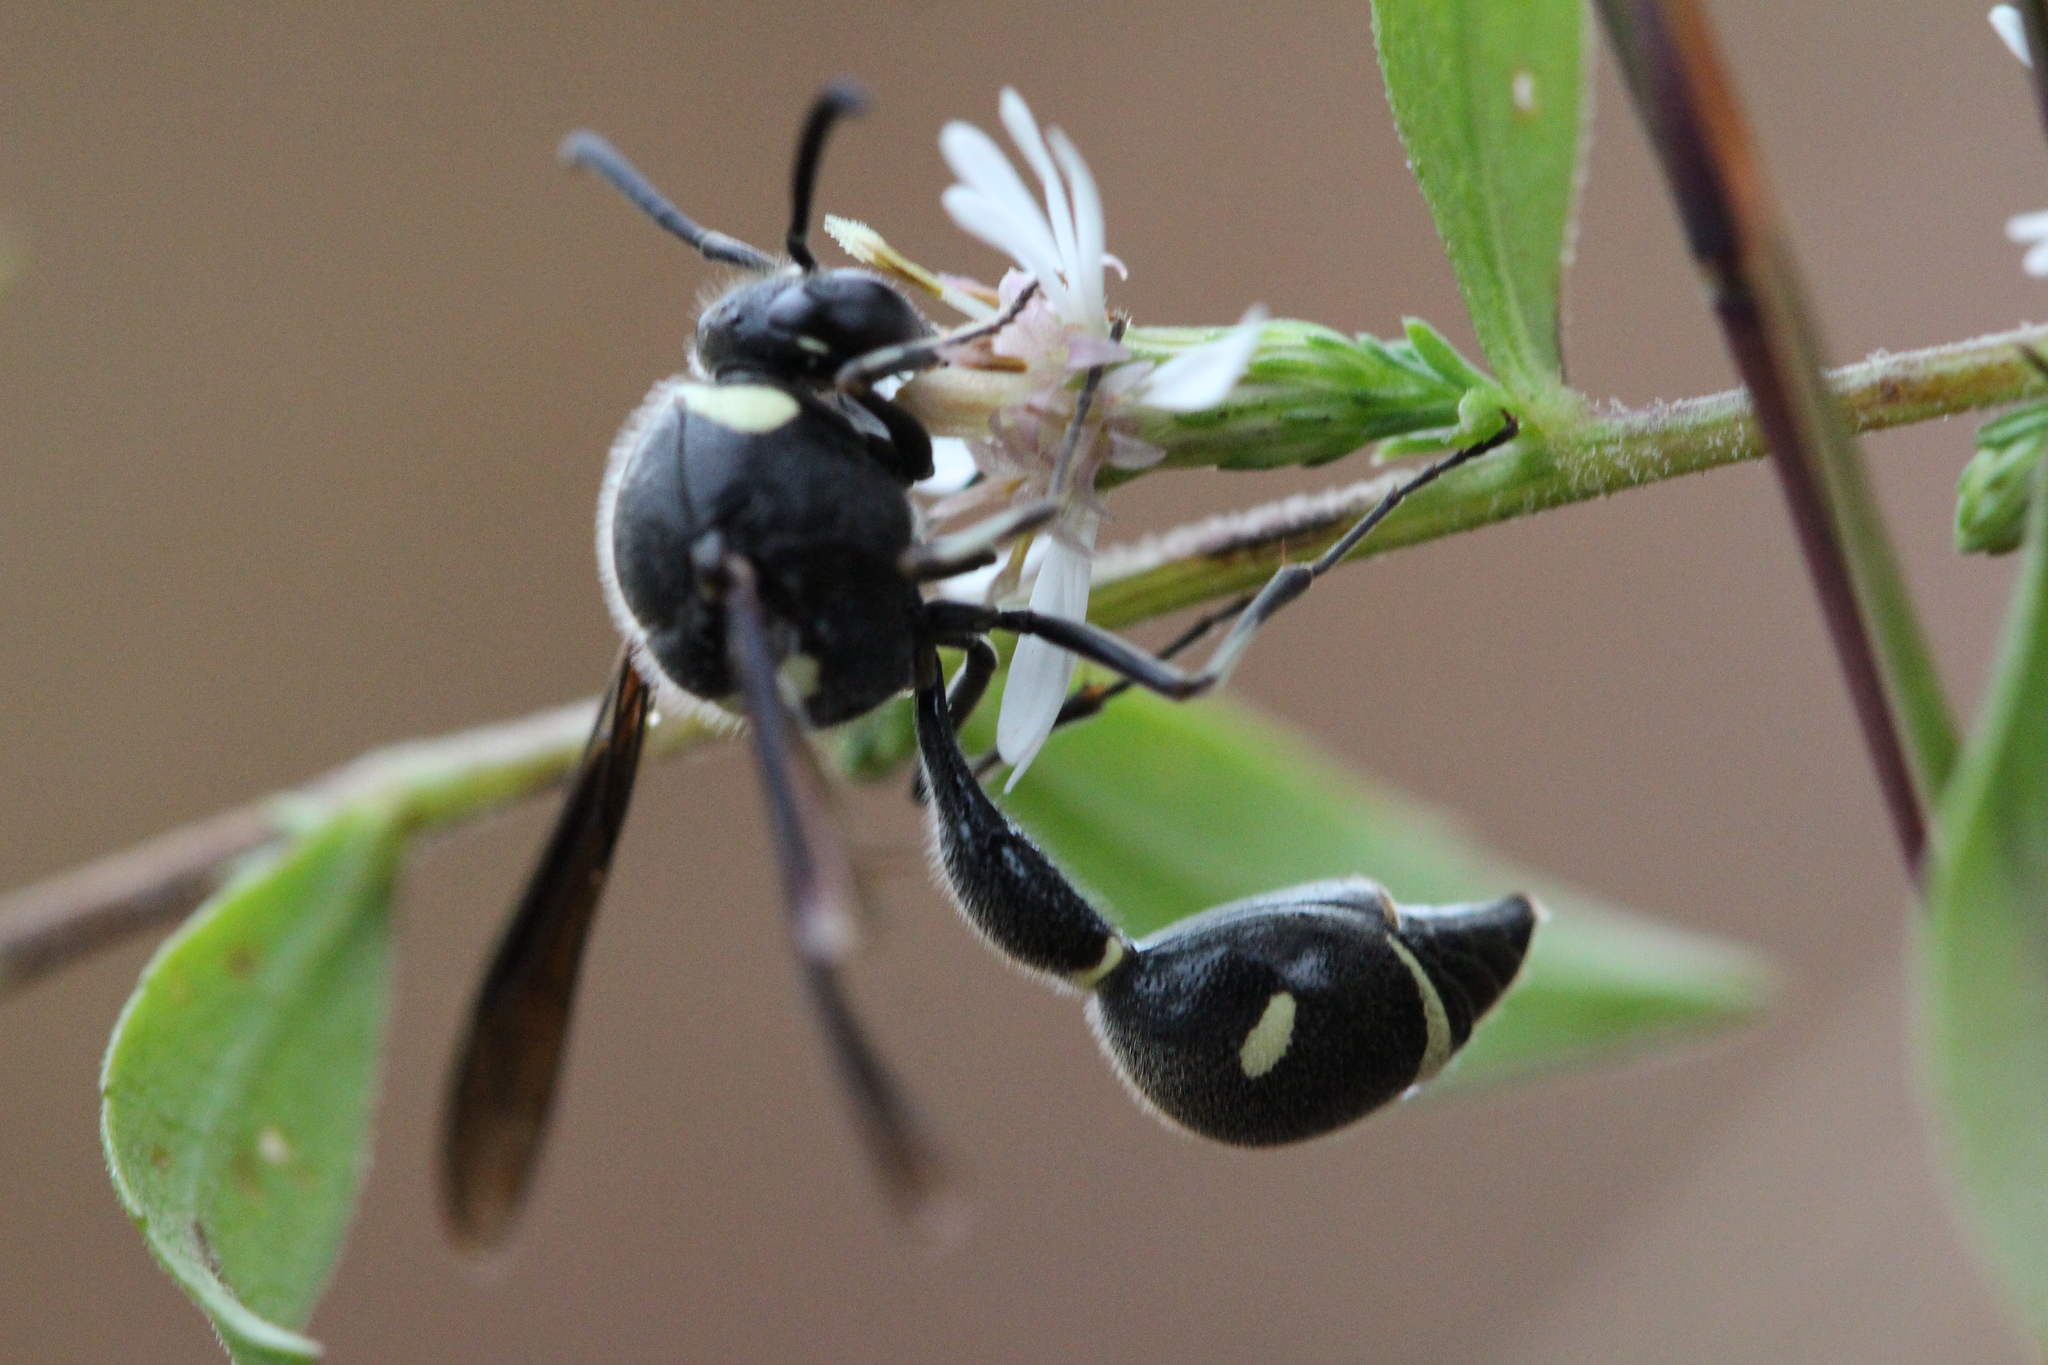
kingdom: Animalia
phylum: Arthropoda
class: Insecta
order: Hymenoptera
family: Vespidae
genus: Eumenes
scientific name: Eumenes fraternus
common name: Fraternal potter wasp
